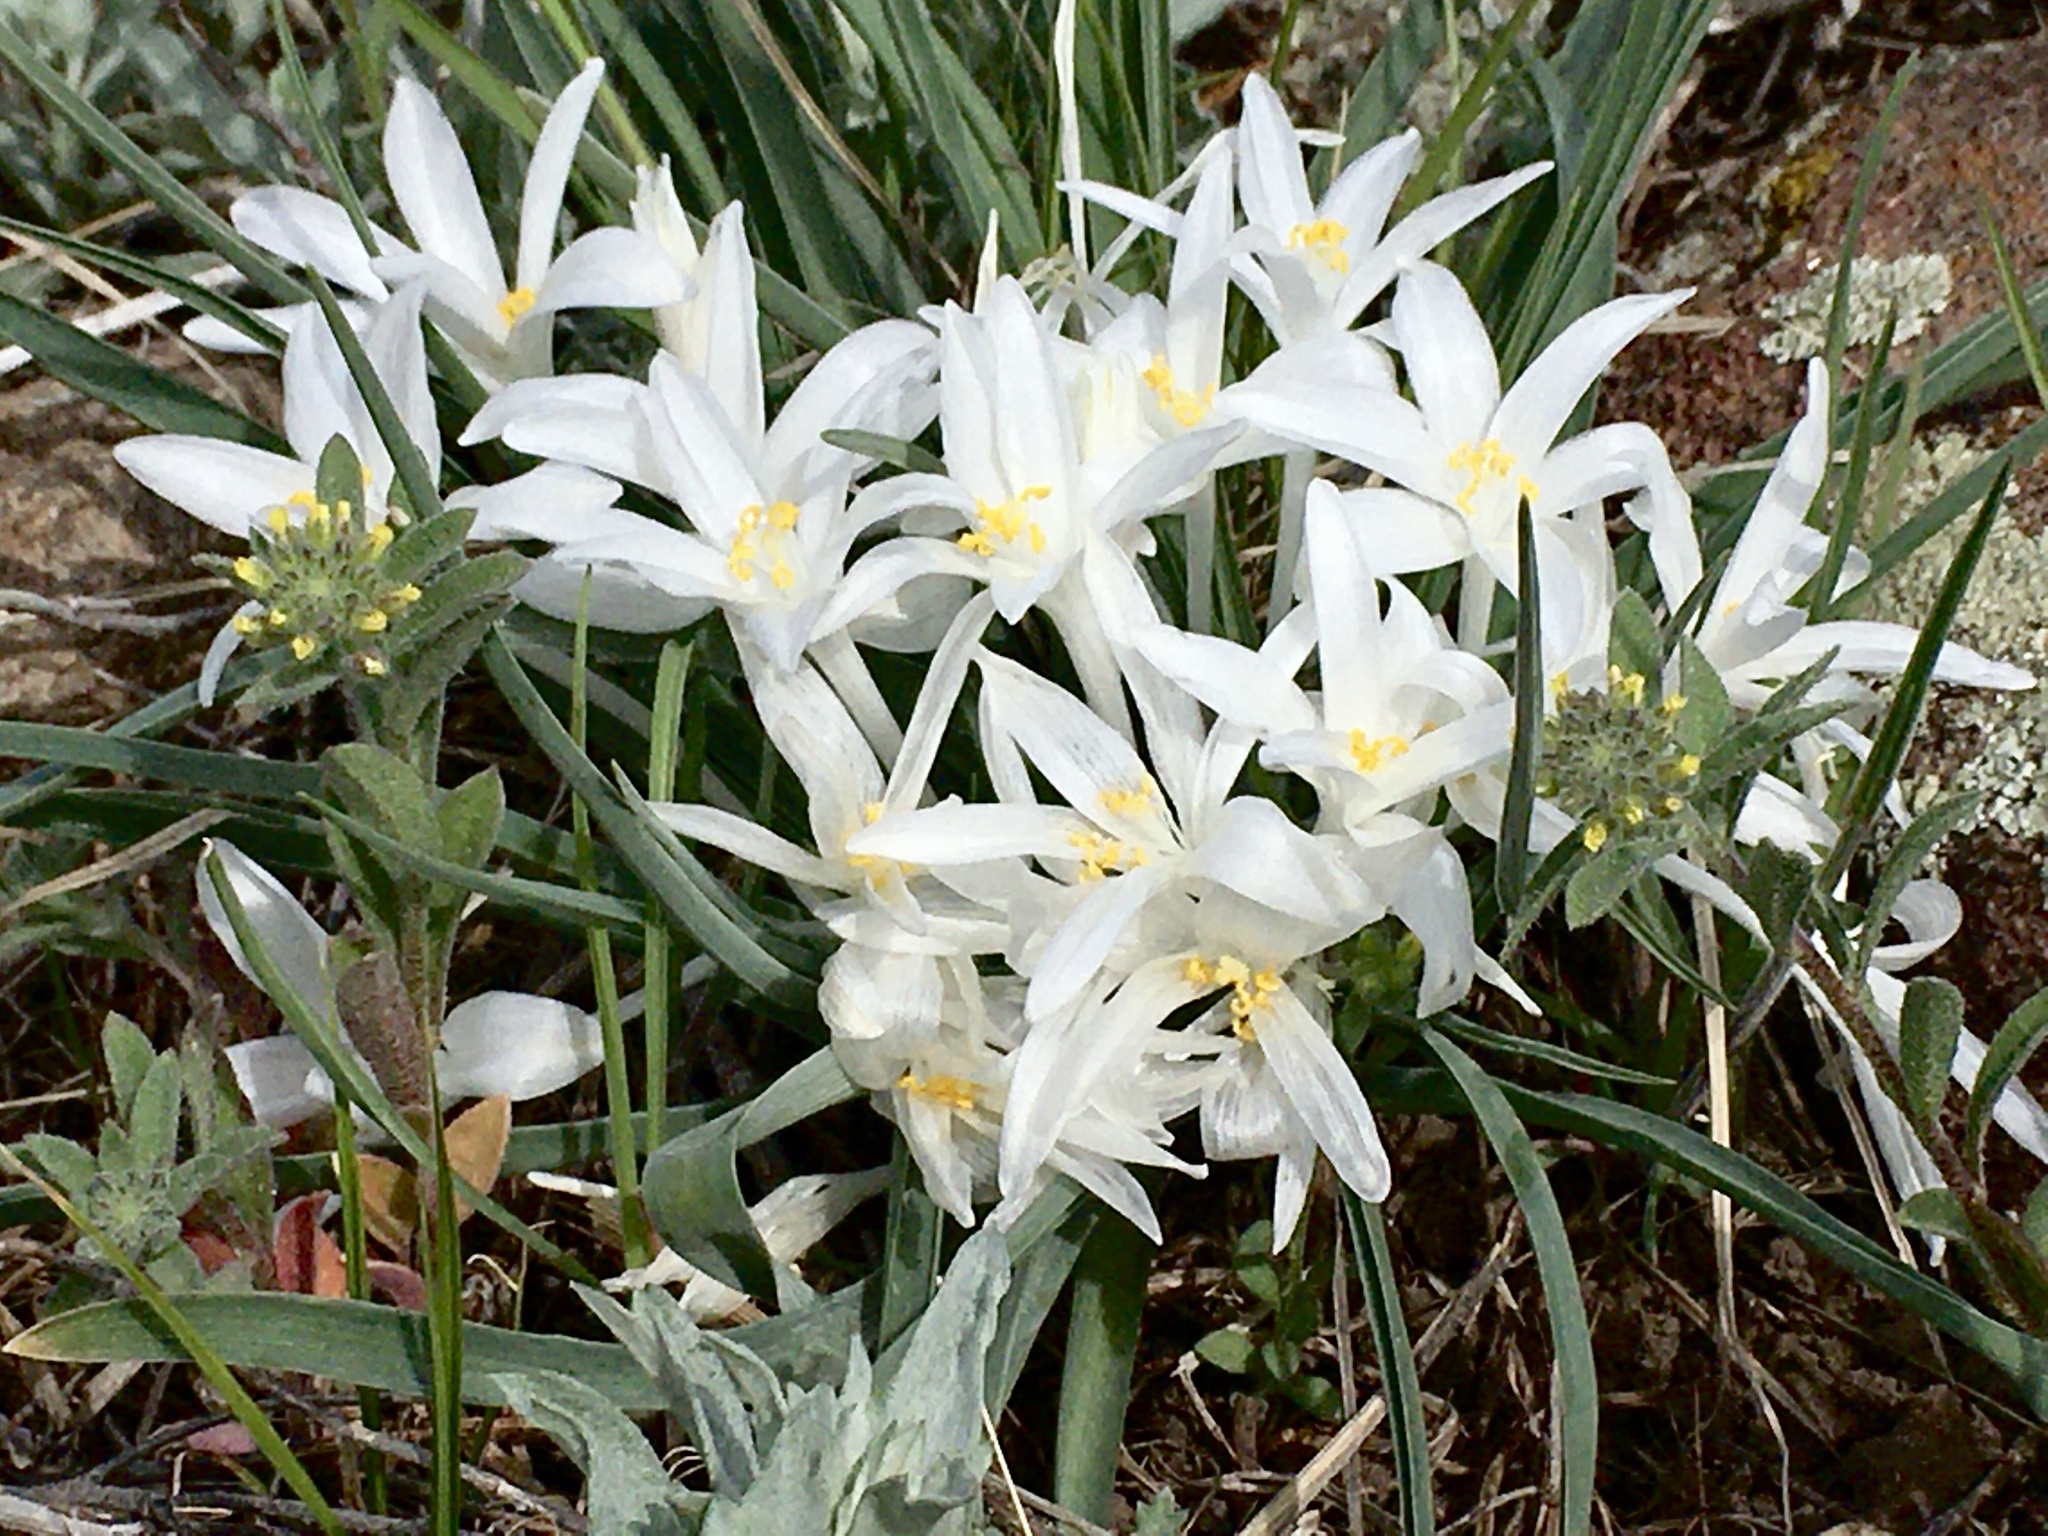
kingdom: Plantae
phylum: Tracheophyta
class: Liliopsida
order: Asparagales
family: Asparagaceae
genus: Leucocrinum
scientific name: Leucocrinum montanum
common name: Mountain-lily
